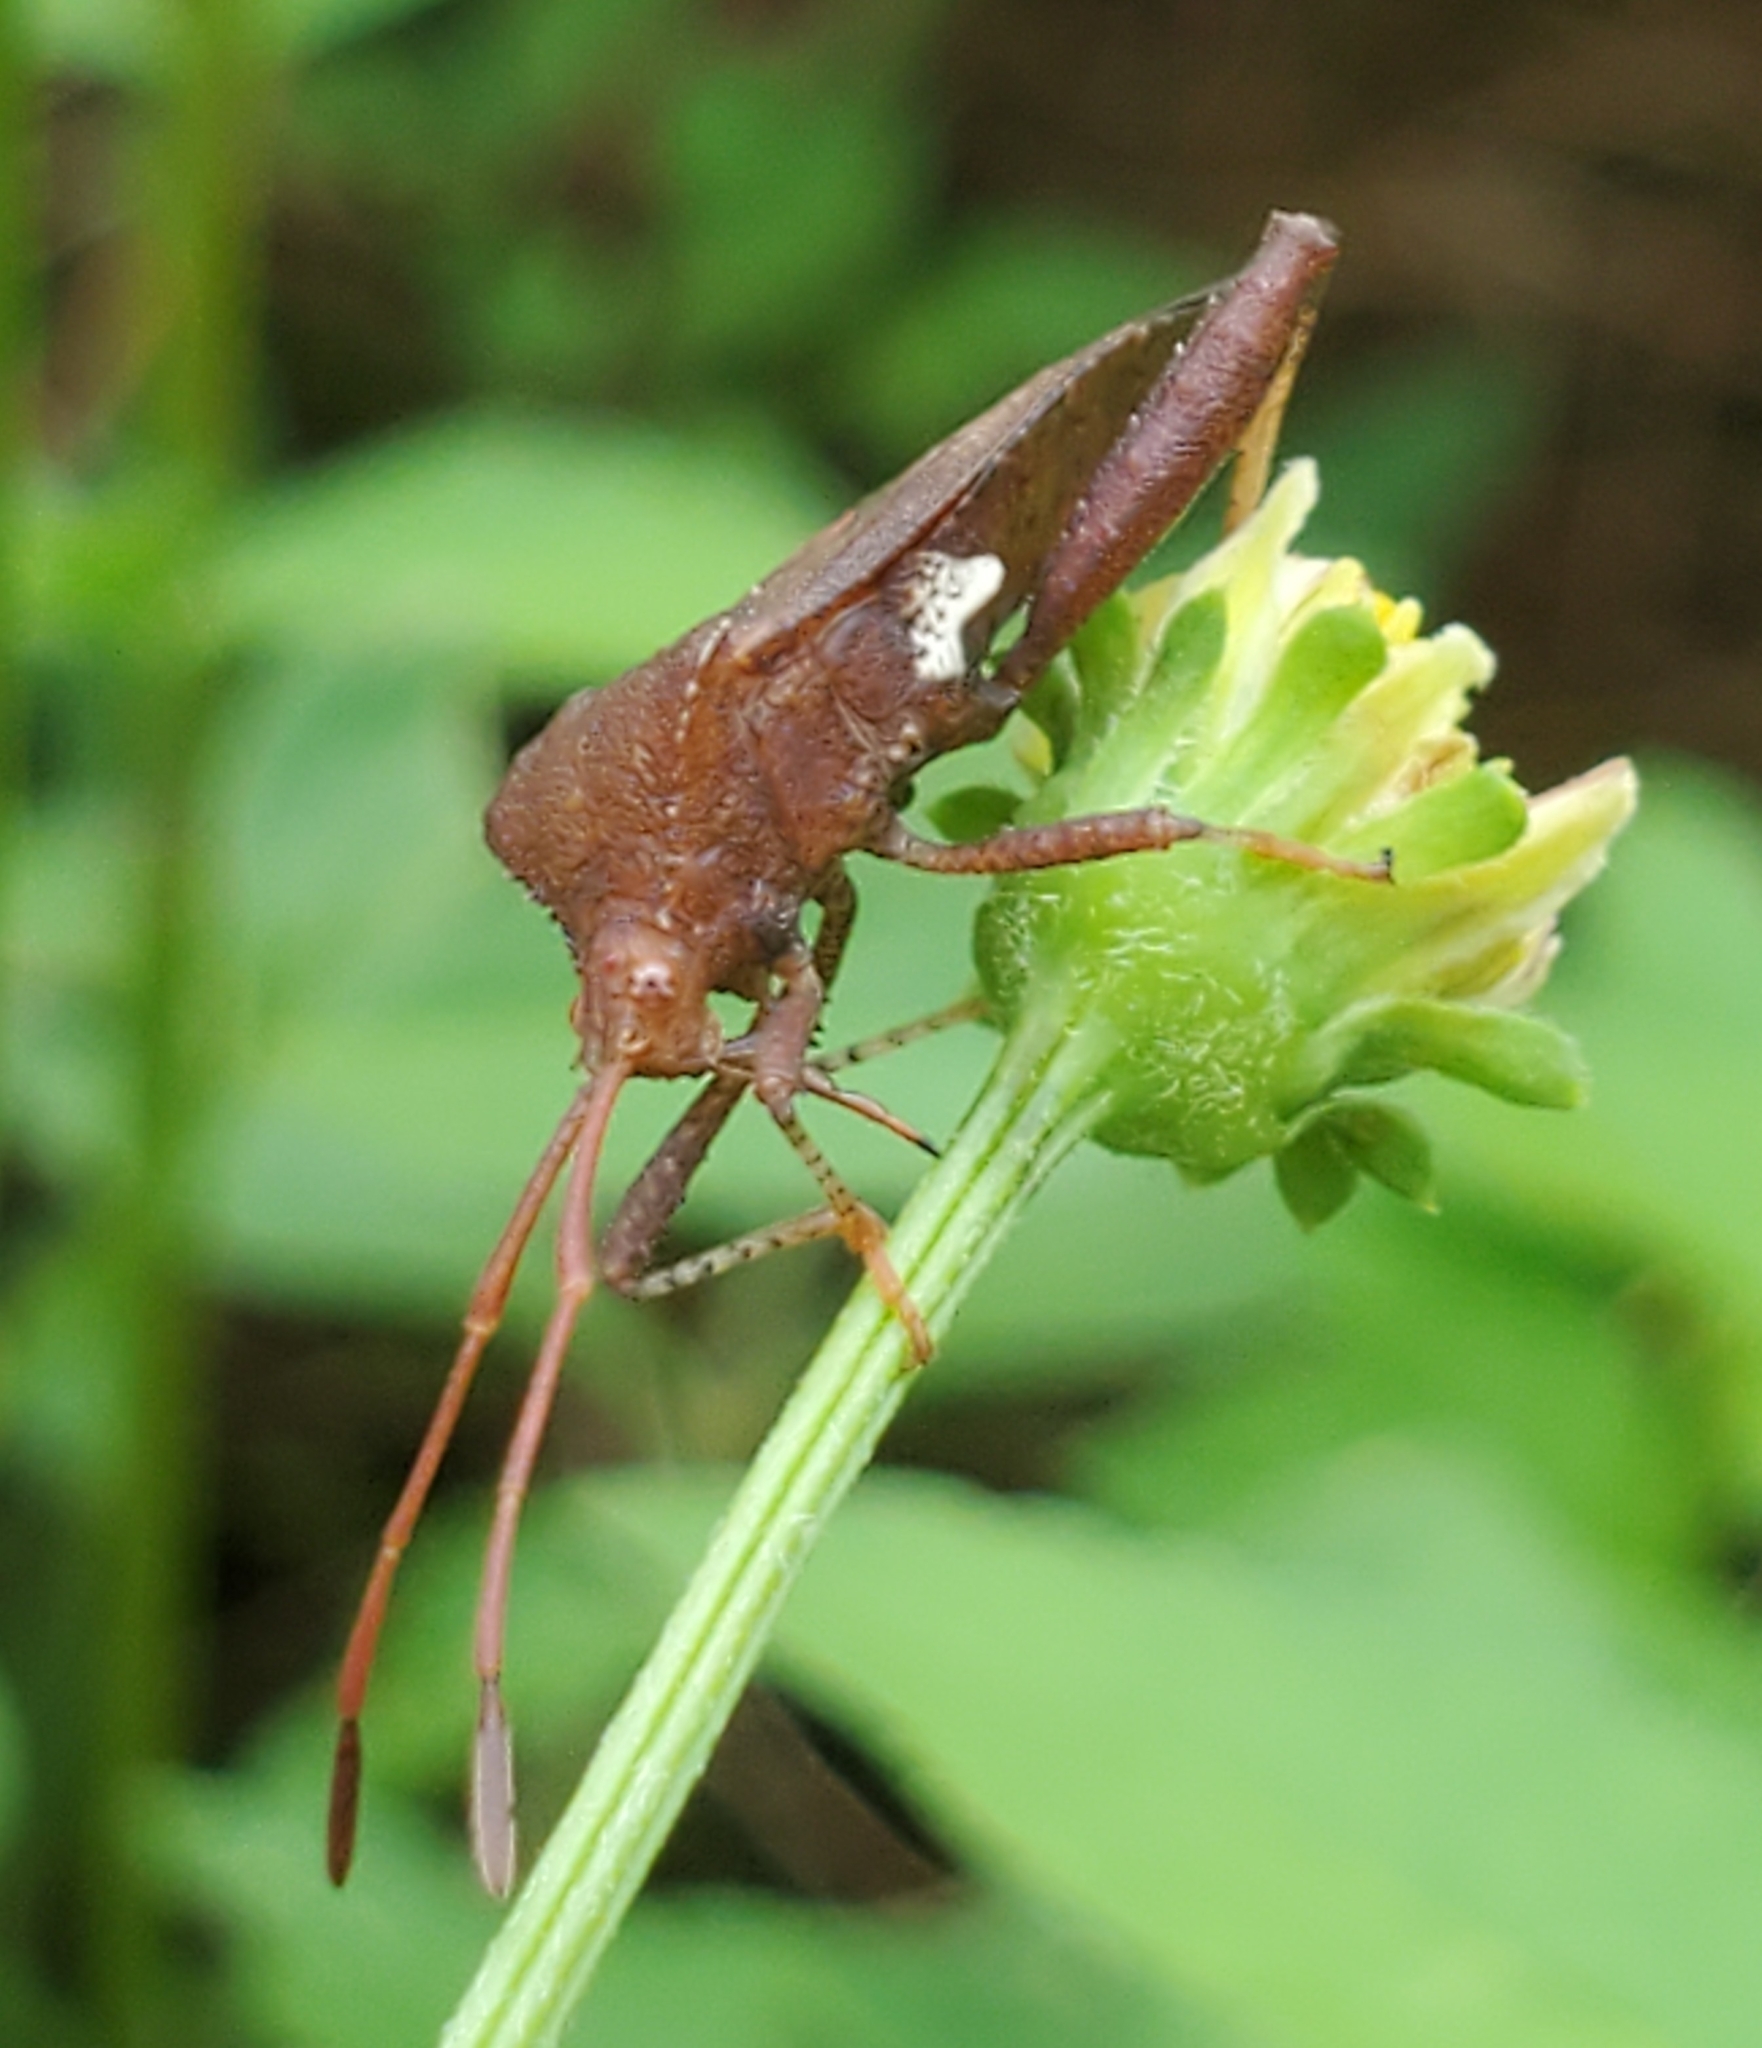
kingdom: Animalia
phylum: Arthropoda
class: Insecta
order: Hemiptera
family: Coreidae
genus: Euthochtha
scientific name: Euthochtha galeator
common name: Helmeted squash bug
